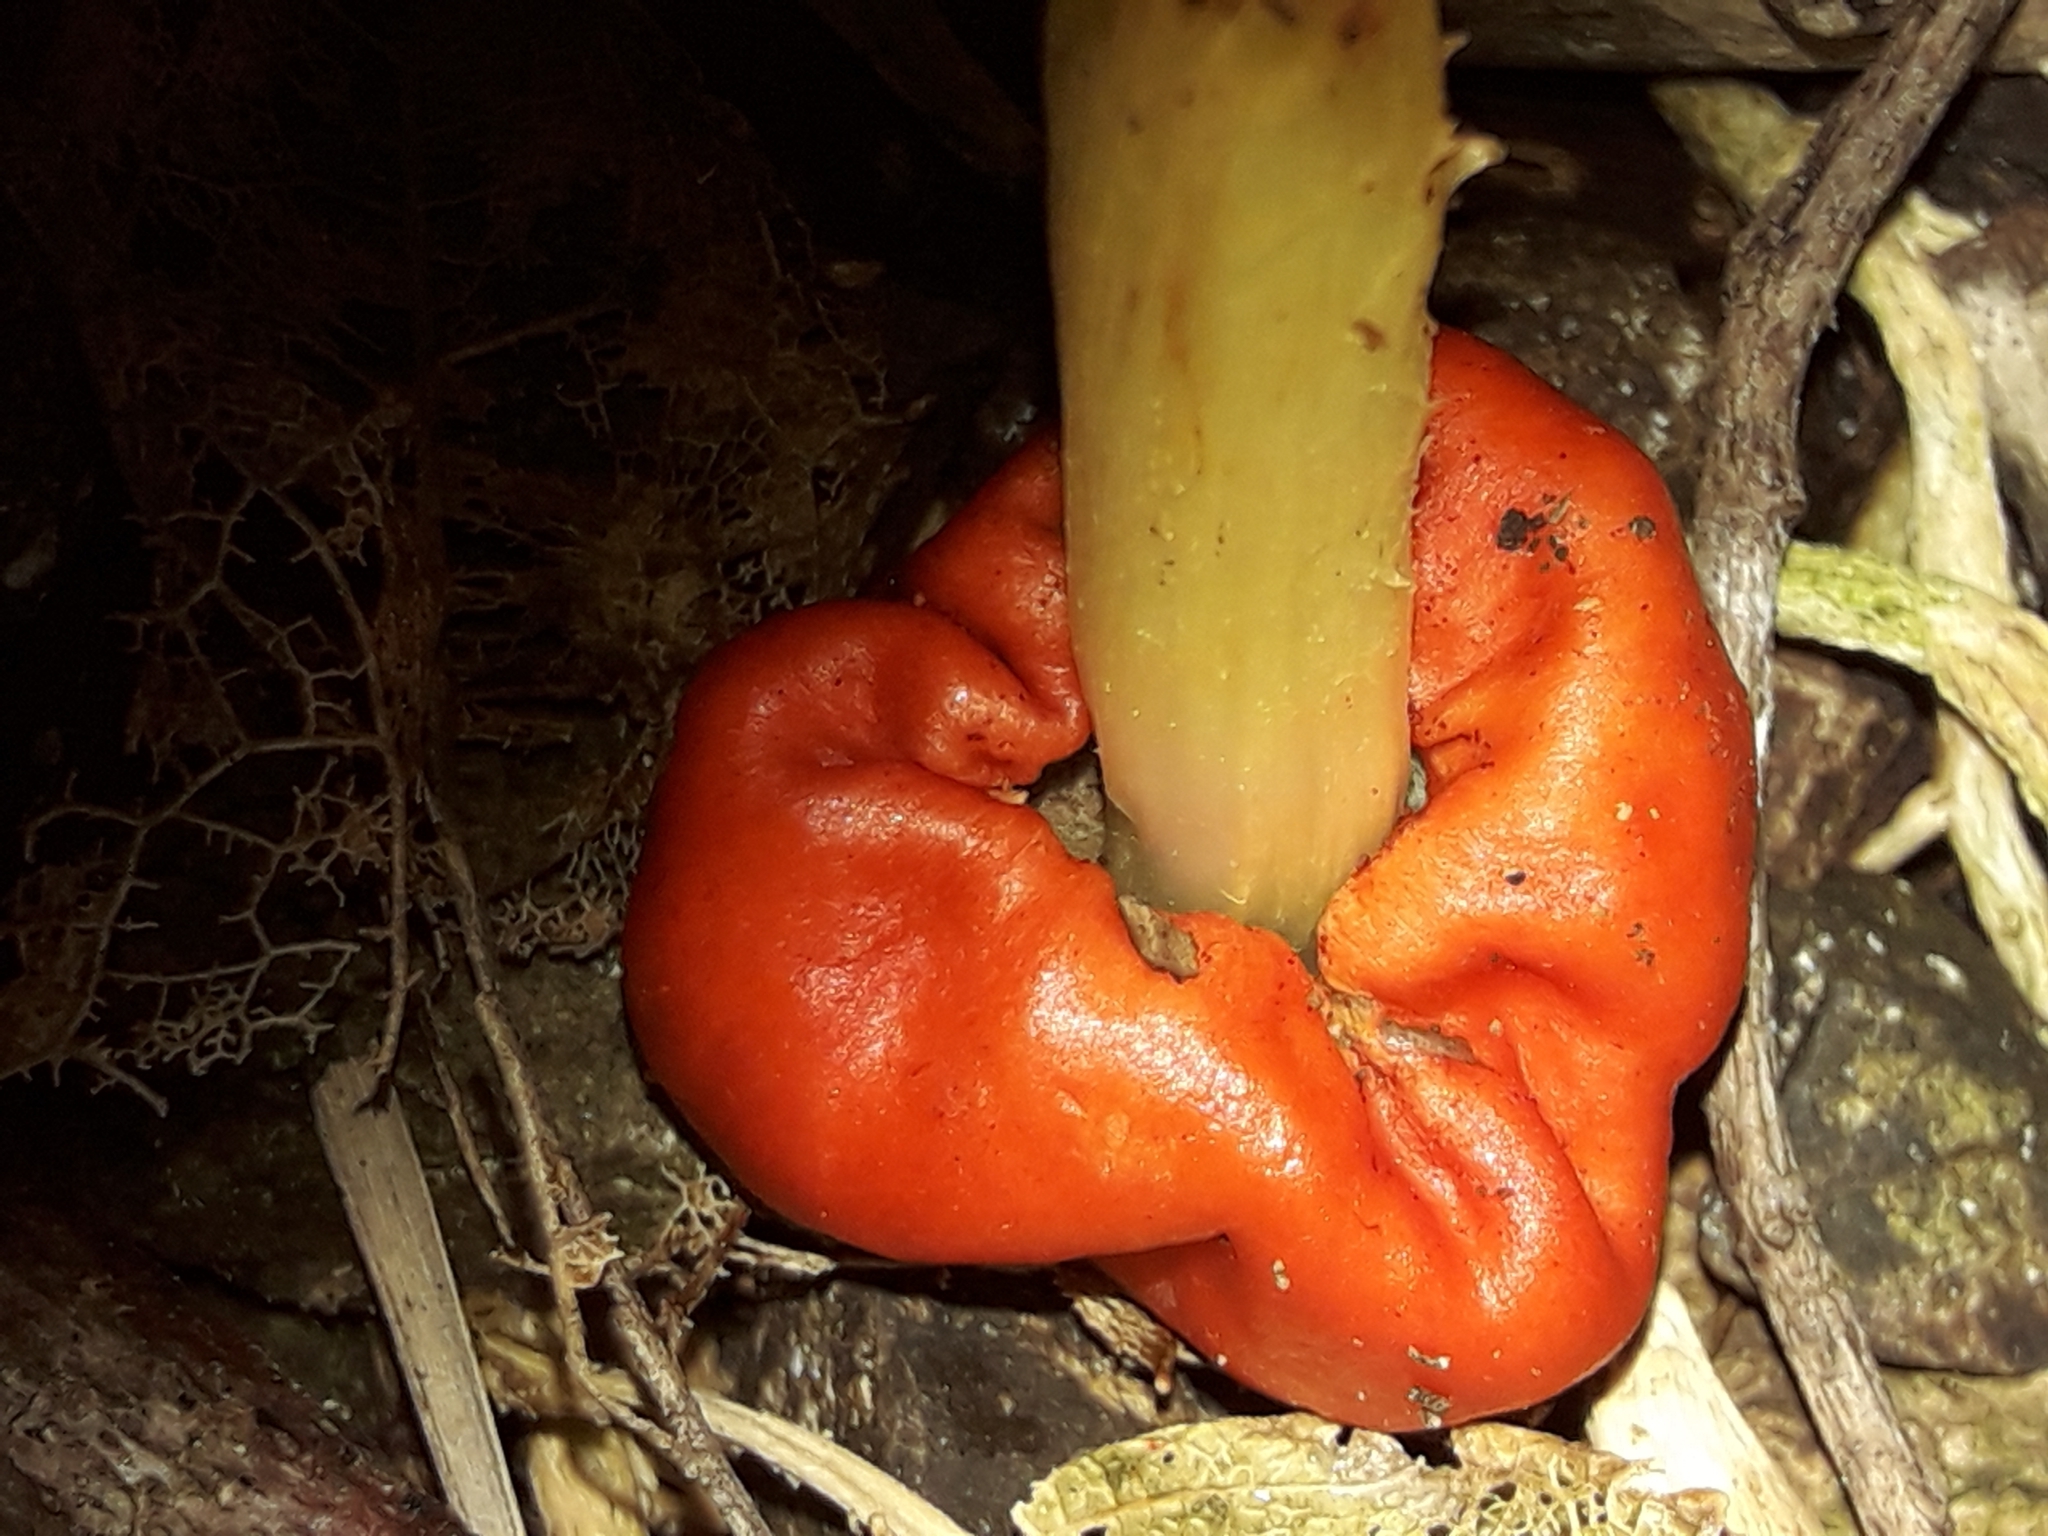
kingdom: Fungi
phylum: Basidiomycota
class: Agaricomycetes
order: Agaricales
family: Strophariaceae
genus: Leratiomyces
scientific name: Leratiomyces erythrocephalus
